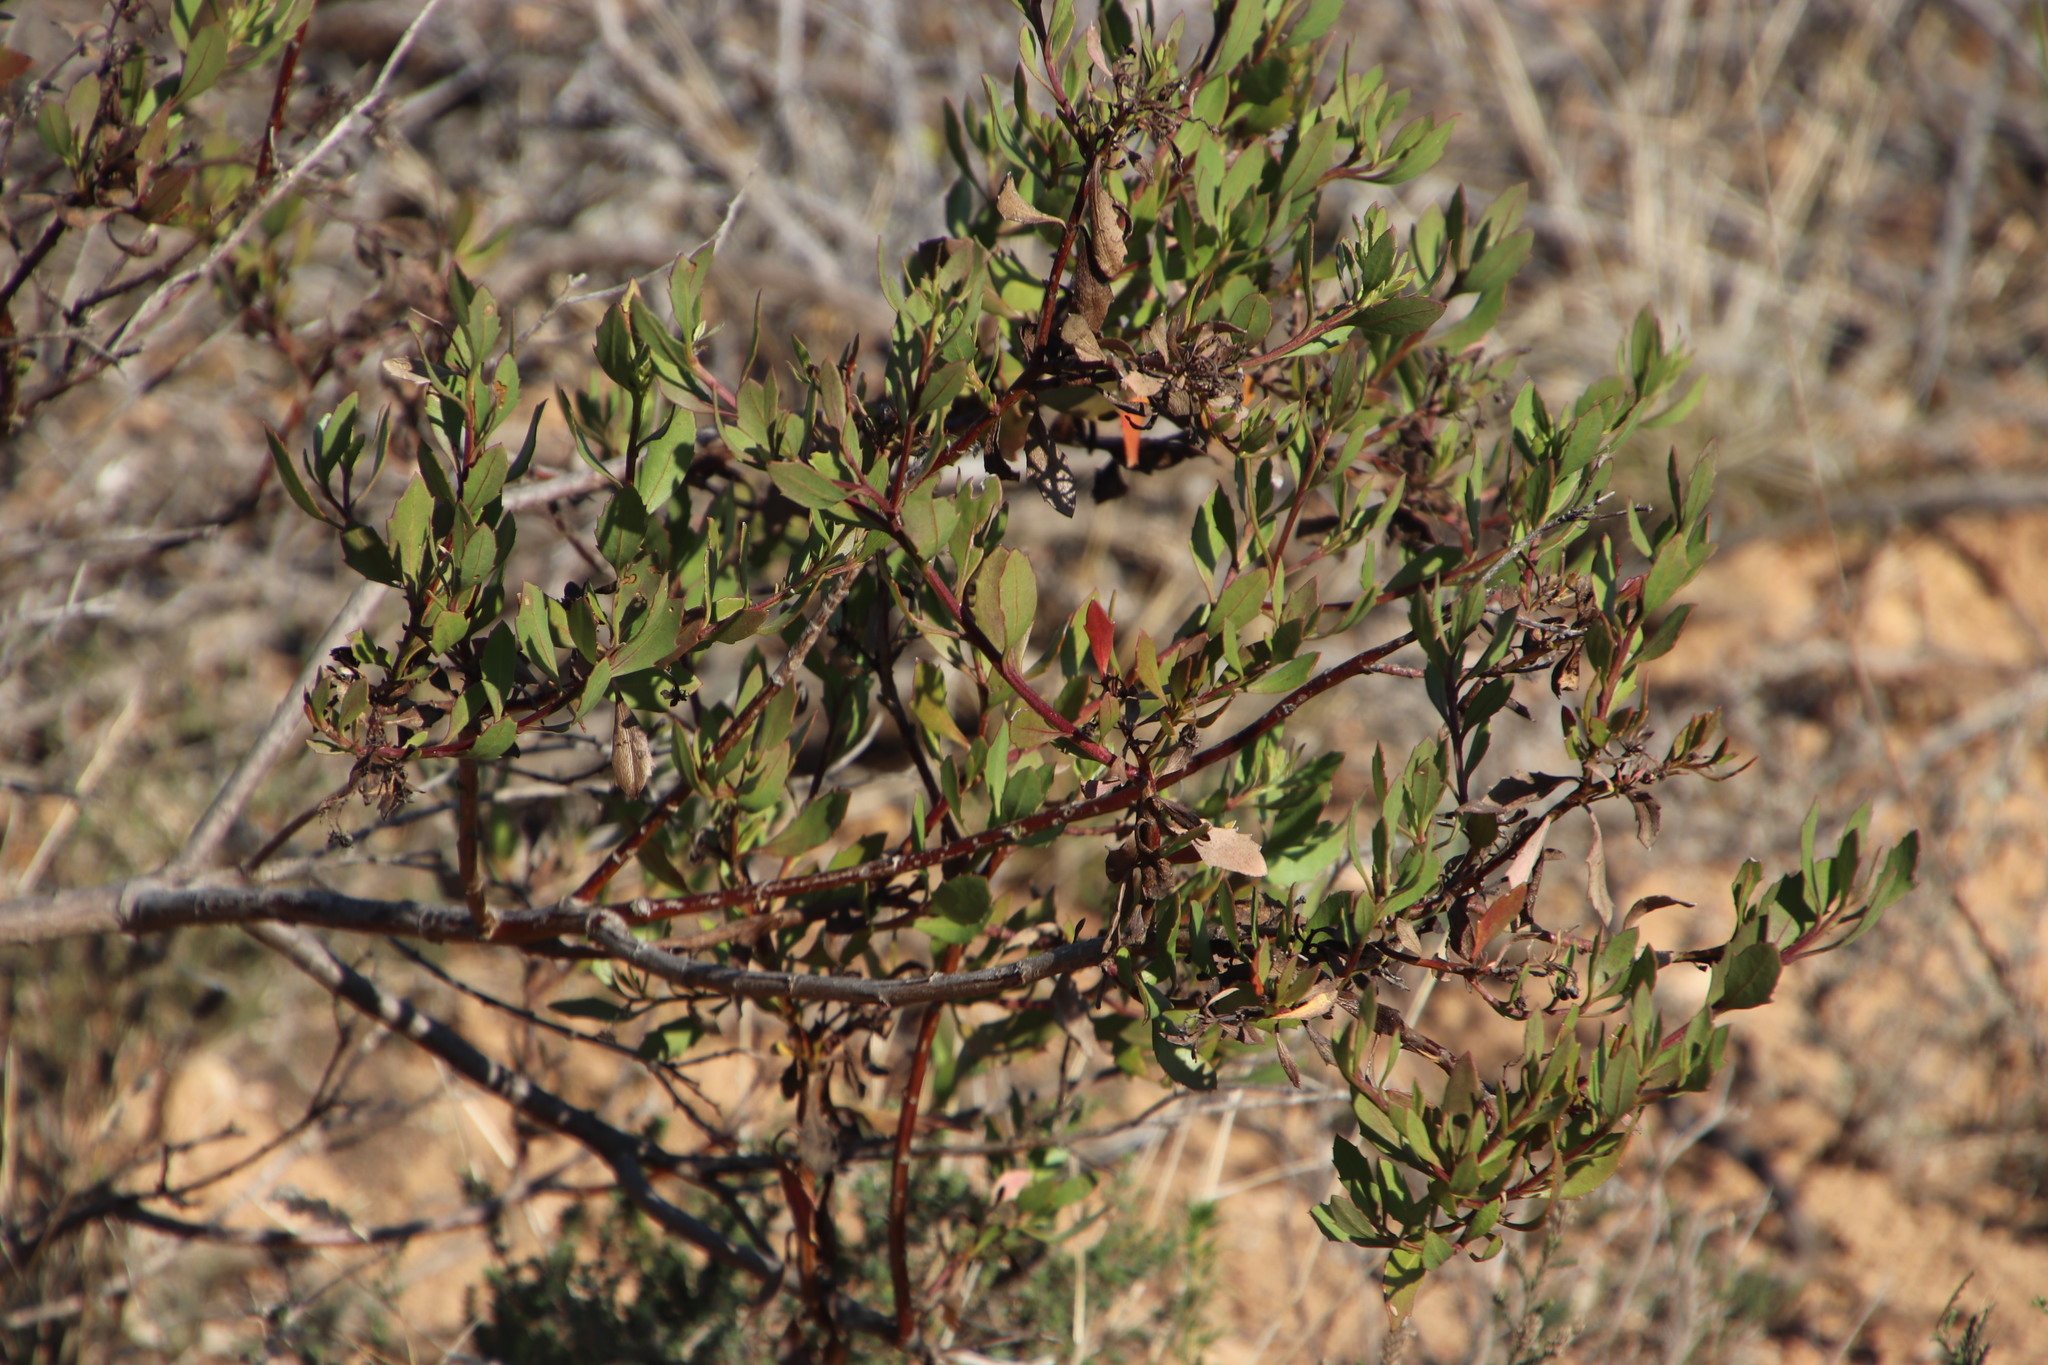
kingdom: Plantae
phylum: Tracheophyta
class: Magnoliopsida
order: Asterales
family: Asteraceae
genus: Osteospermum
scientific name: Osteospermum moniliferum
